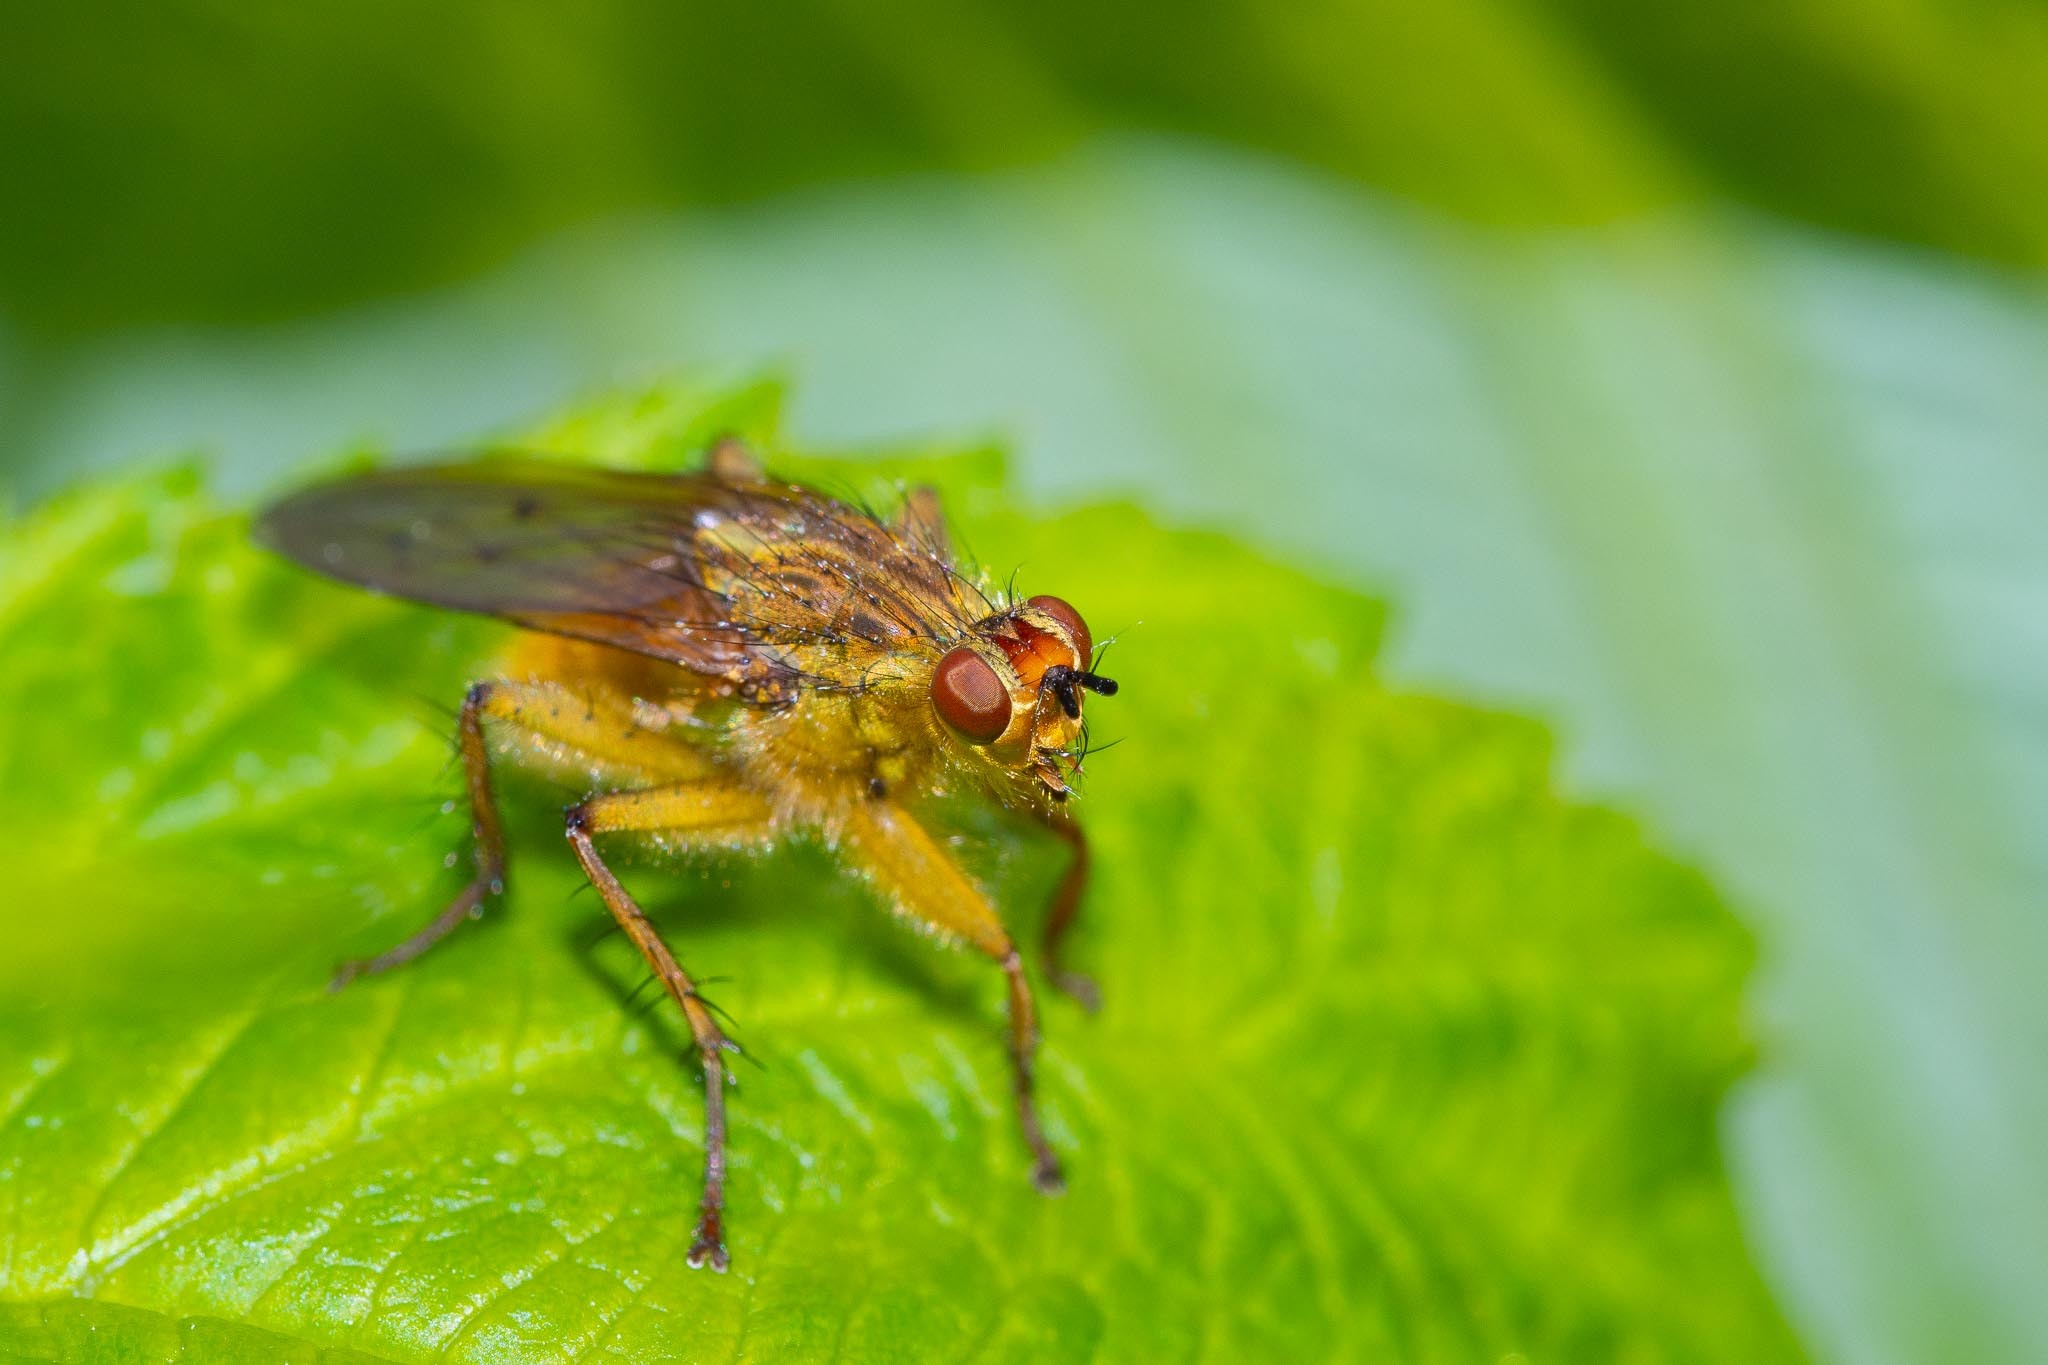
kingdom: Animalia
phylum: Arthropoda
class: Insecta
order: Diptera
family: Scathophagidae
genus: Scathophaga
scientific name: Scathophaga stercoraria
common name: Yellow dung fly
